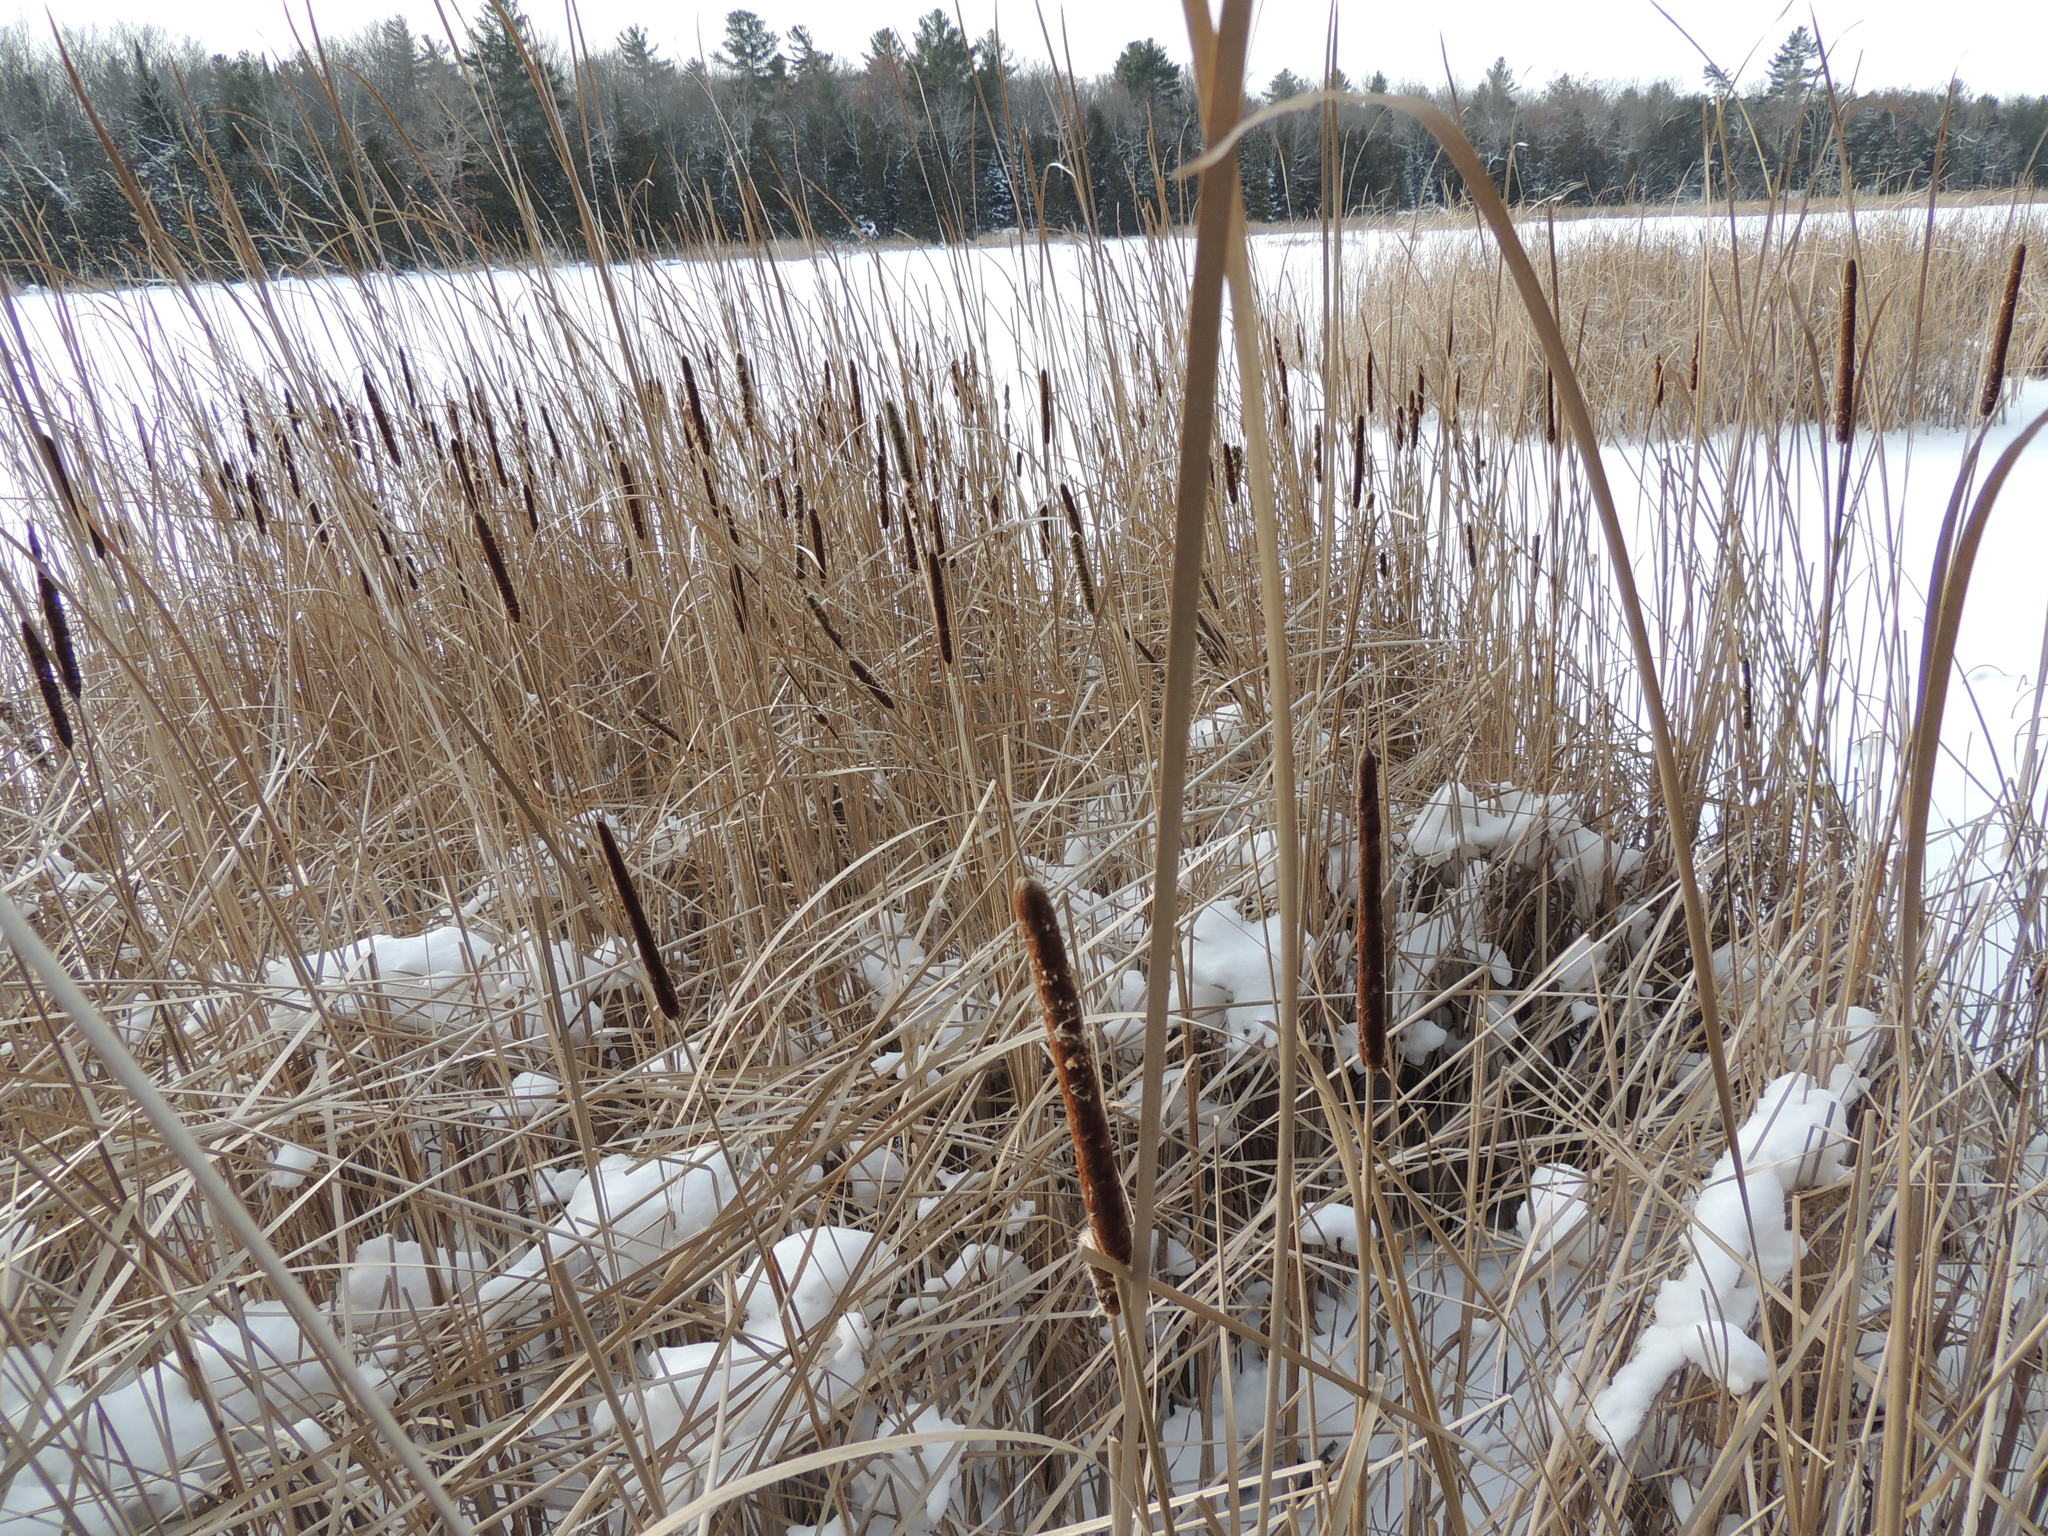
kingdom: Plantae
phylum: Tracheophyta
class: Liliopsida
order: Poales
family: Typhaceae
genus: Typha
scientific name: Typha angustifolia
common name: Lesser bulrush
